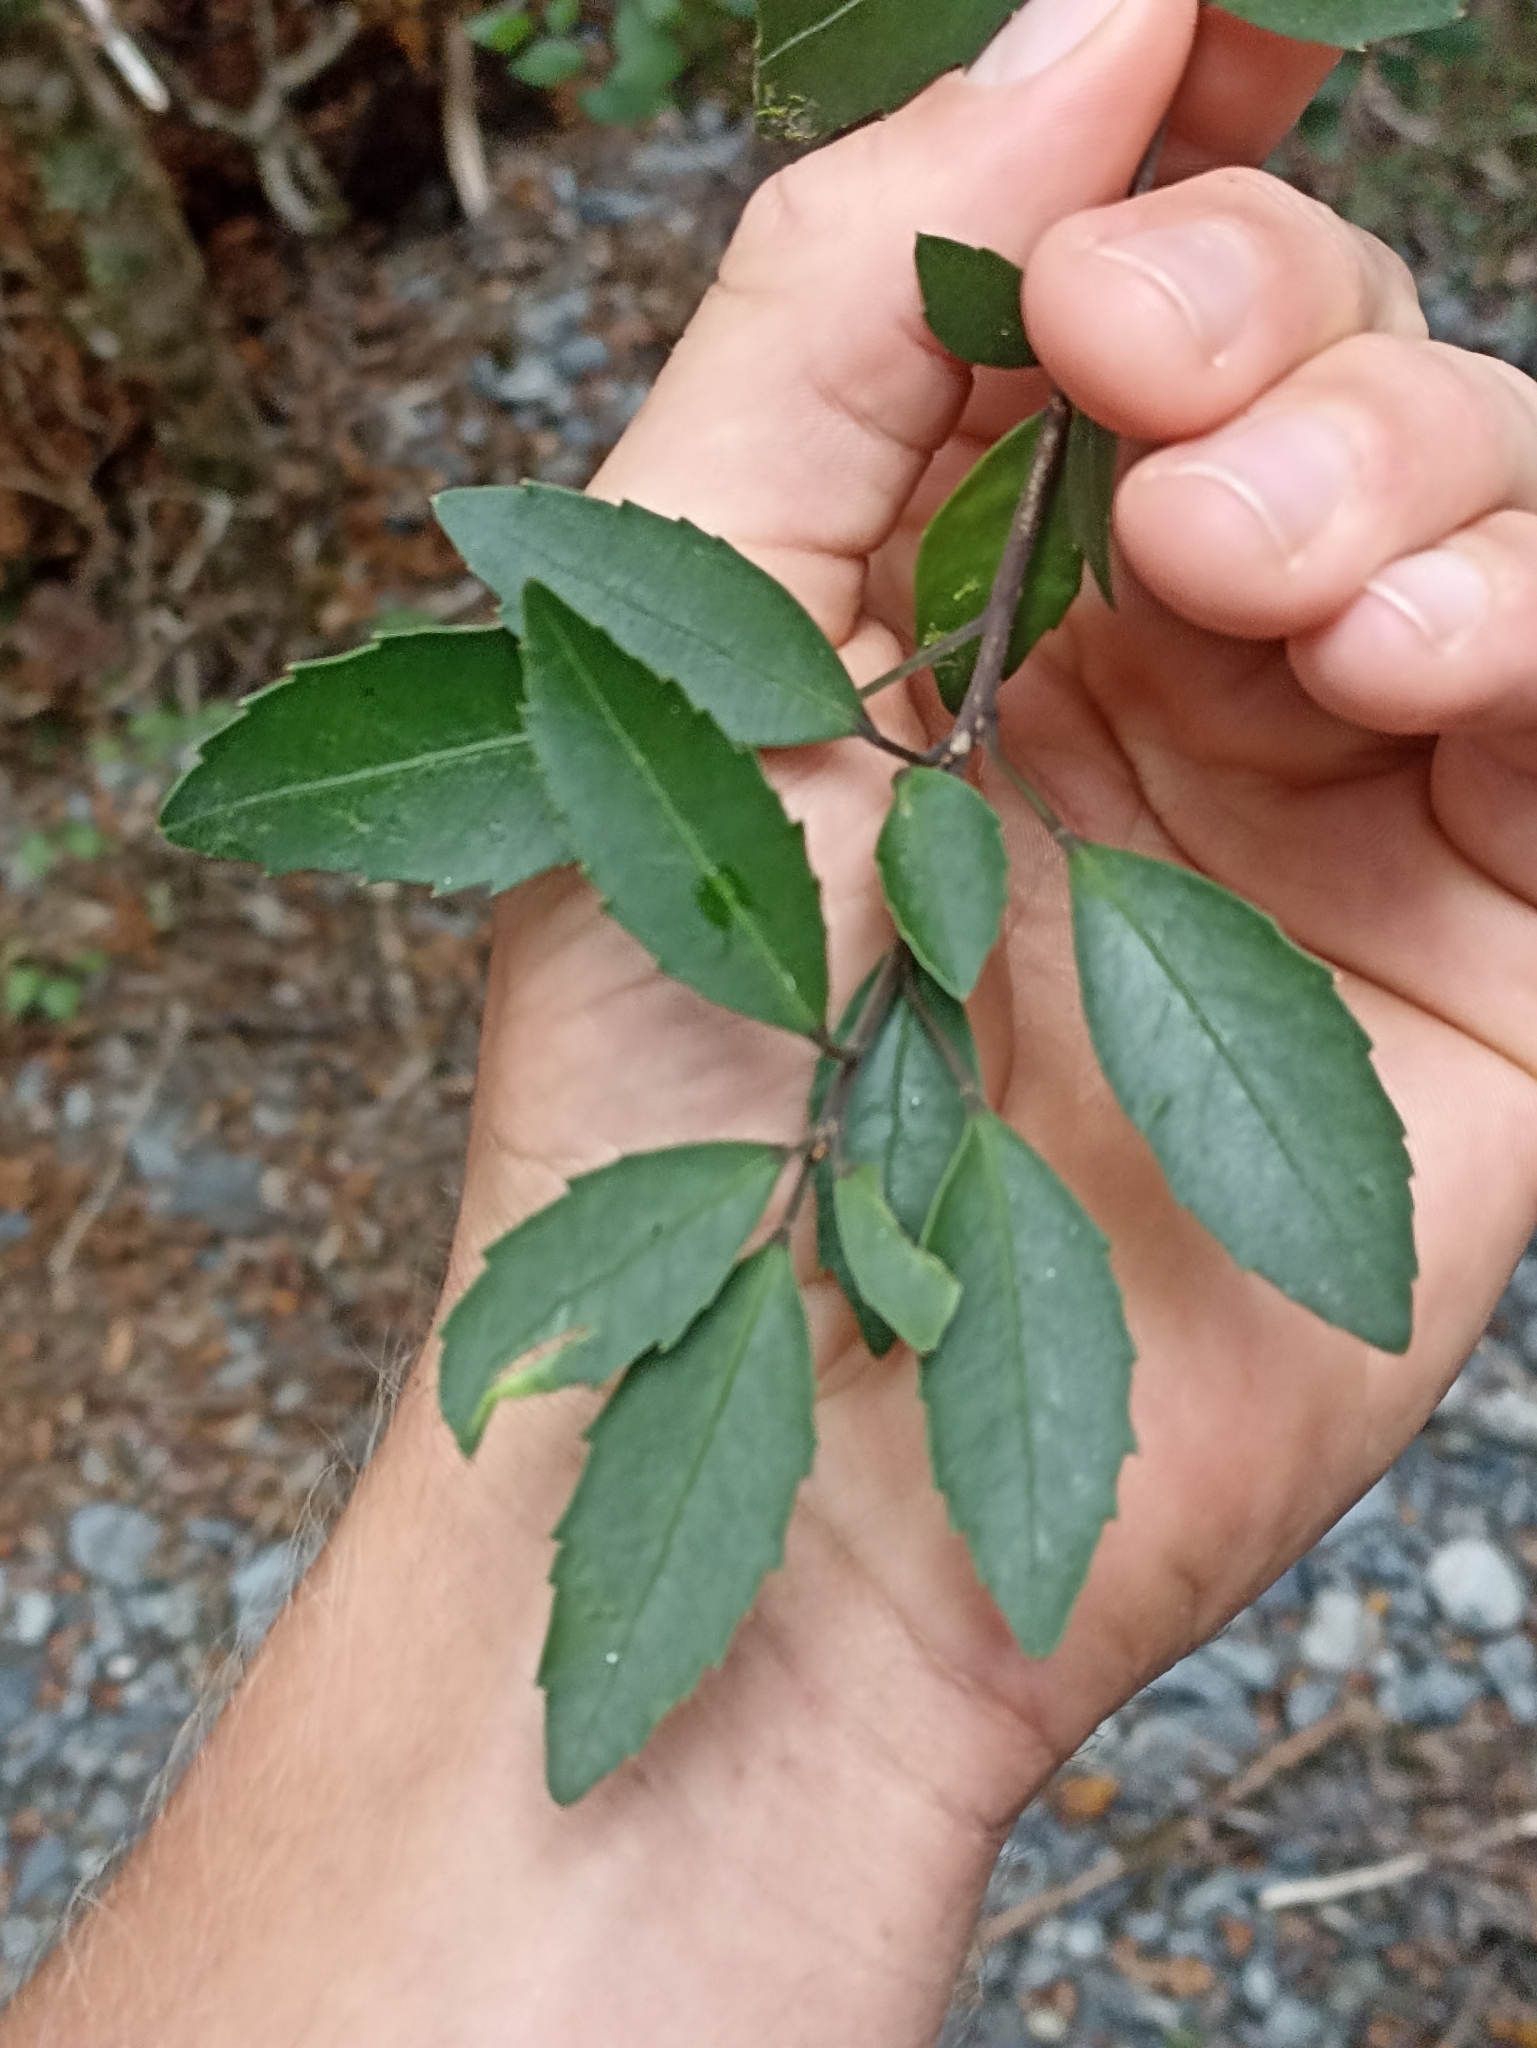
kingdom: Plantae
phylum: Tracheophyta
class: Magnoliopsida
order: Apiales
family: Araliaceae
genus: Raukaua
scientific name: Raukaua simplex
